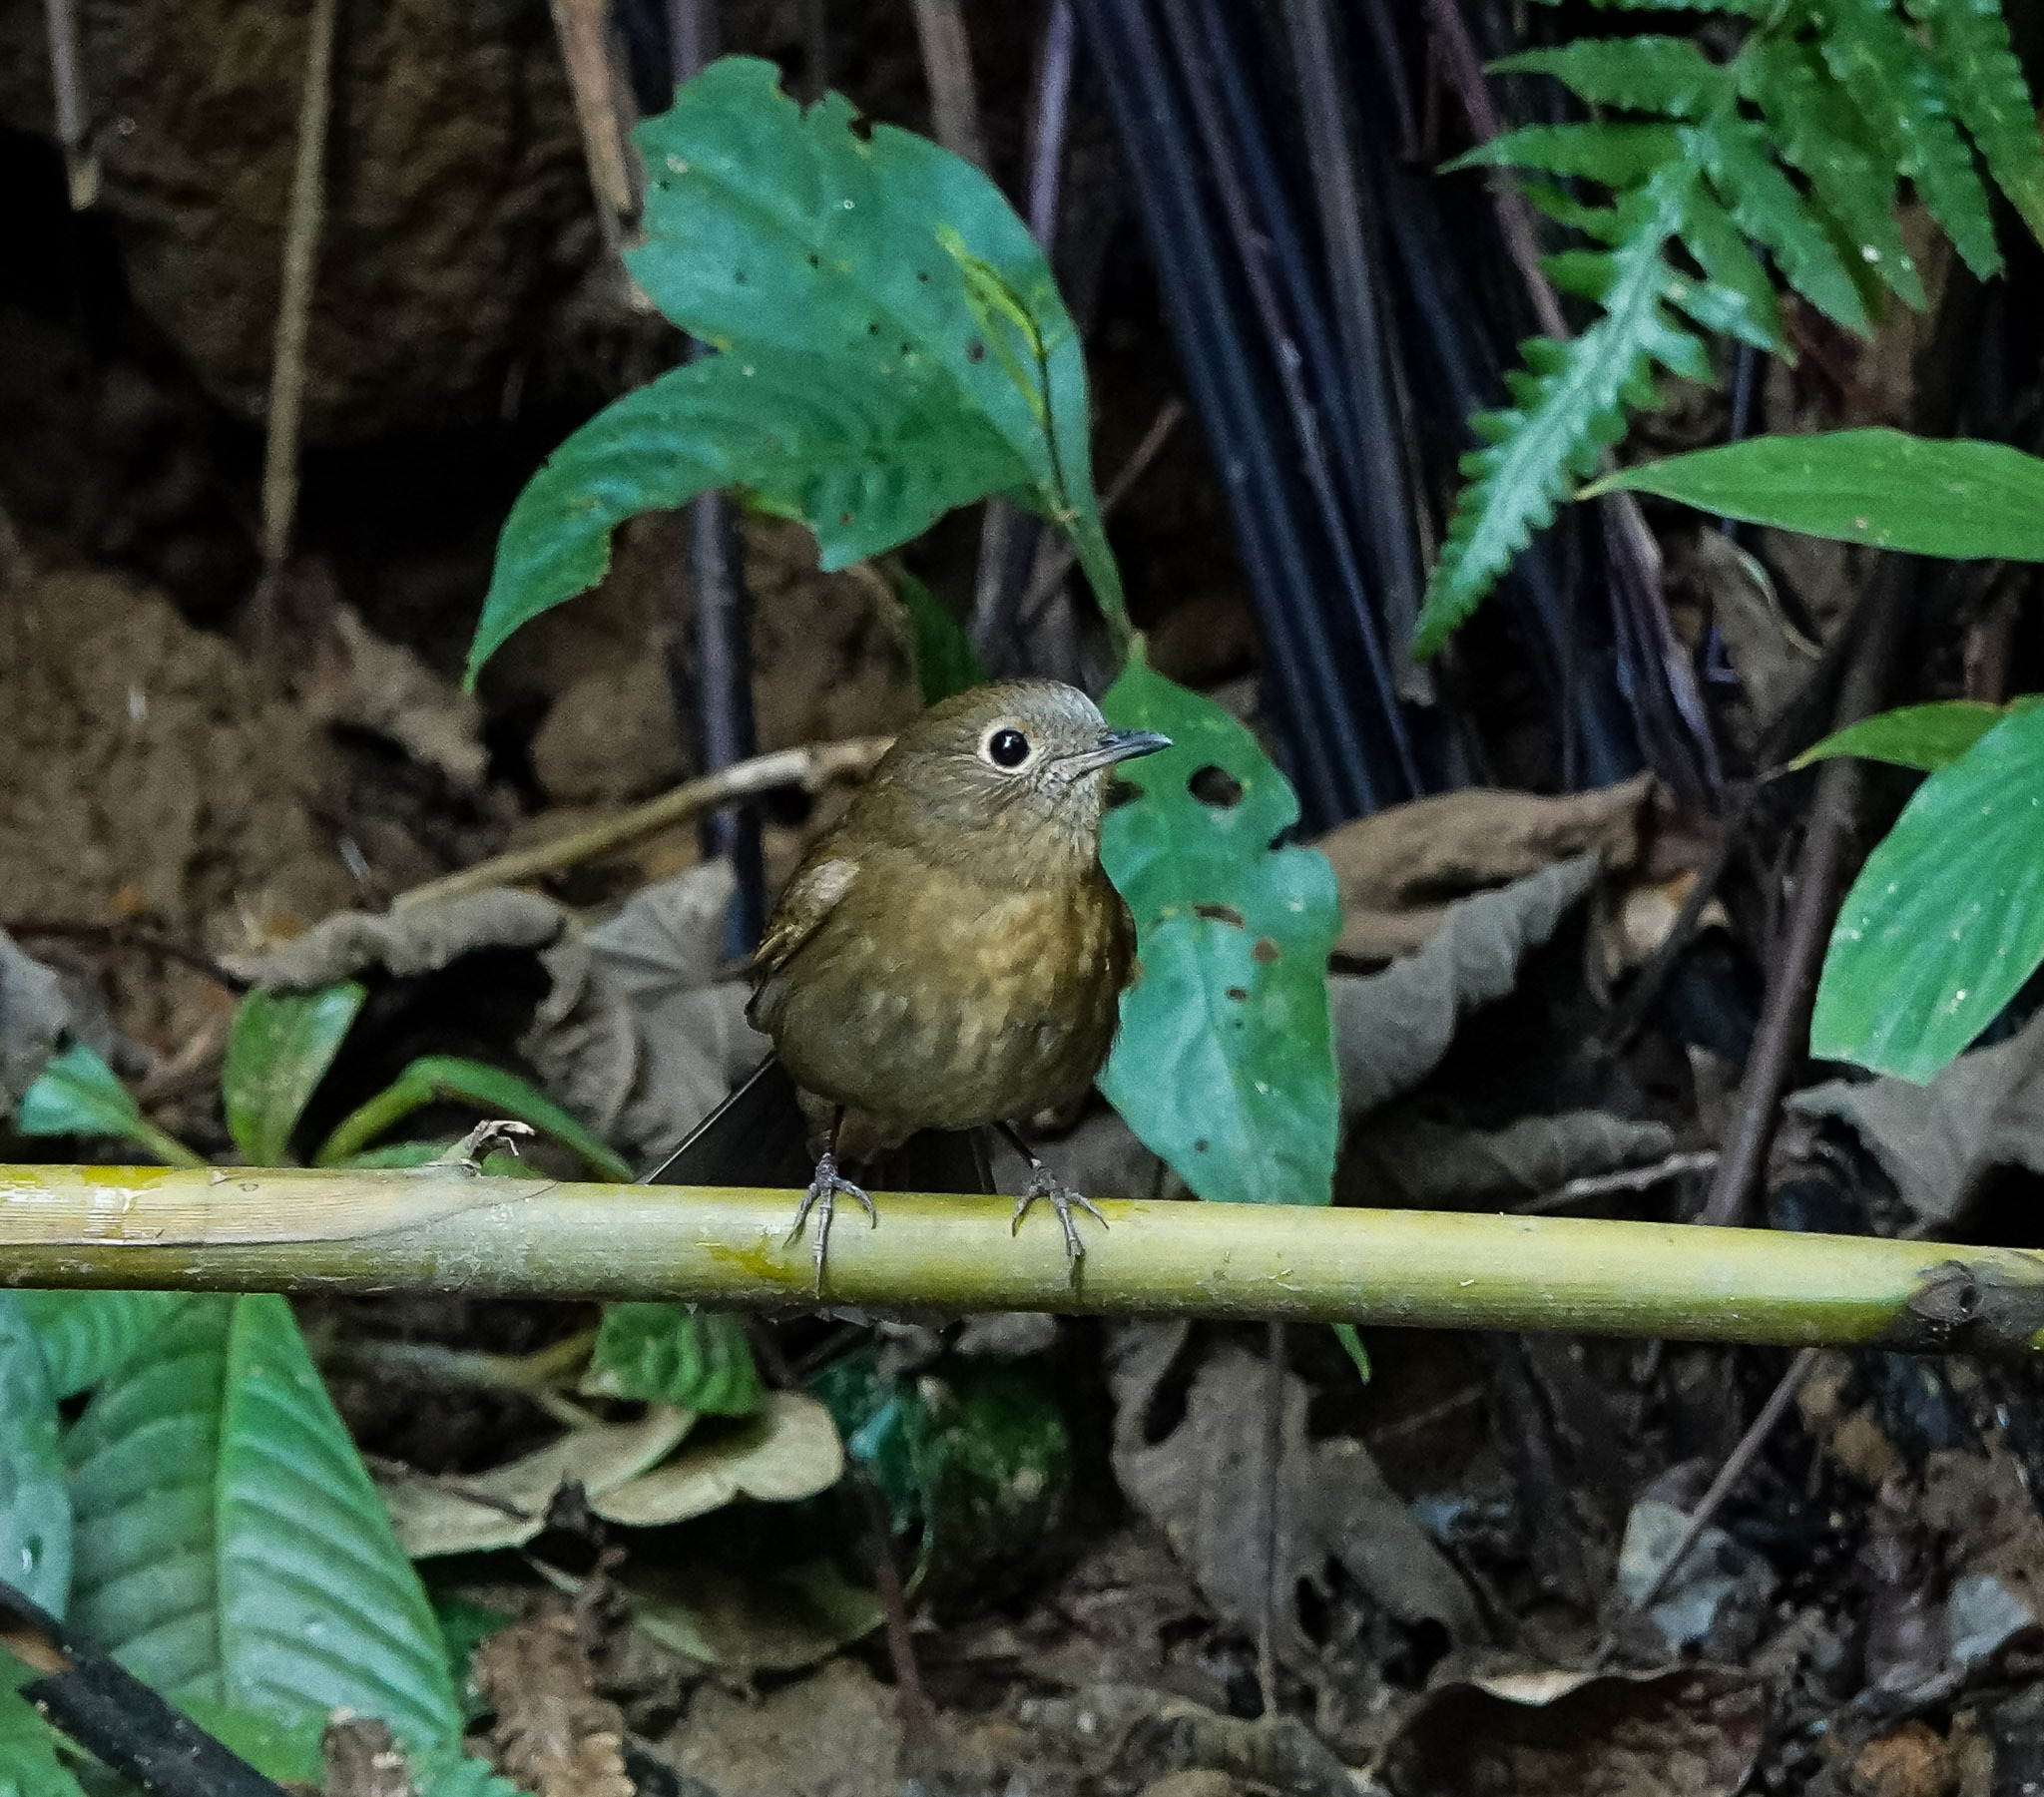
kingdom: Animalia
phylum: Chordata
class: Aves
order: Passeriformes
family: Muscicapidae
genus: Myiomela
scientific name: Myiomela leucura
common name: White-tailed robin
